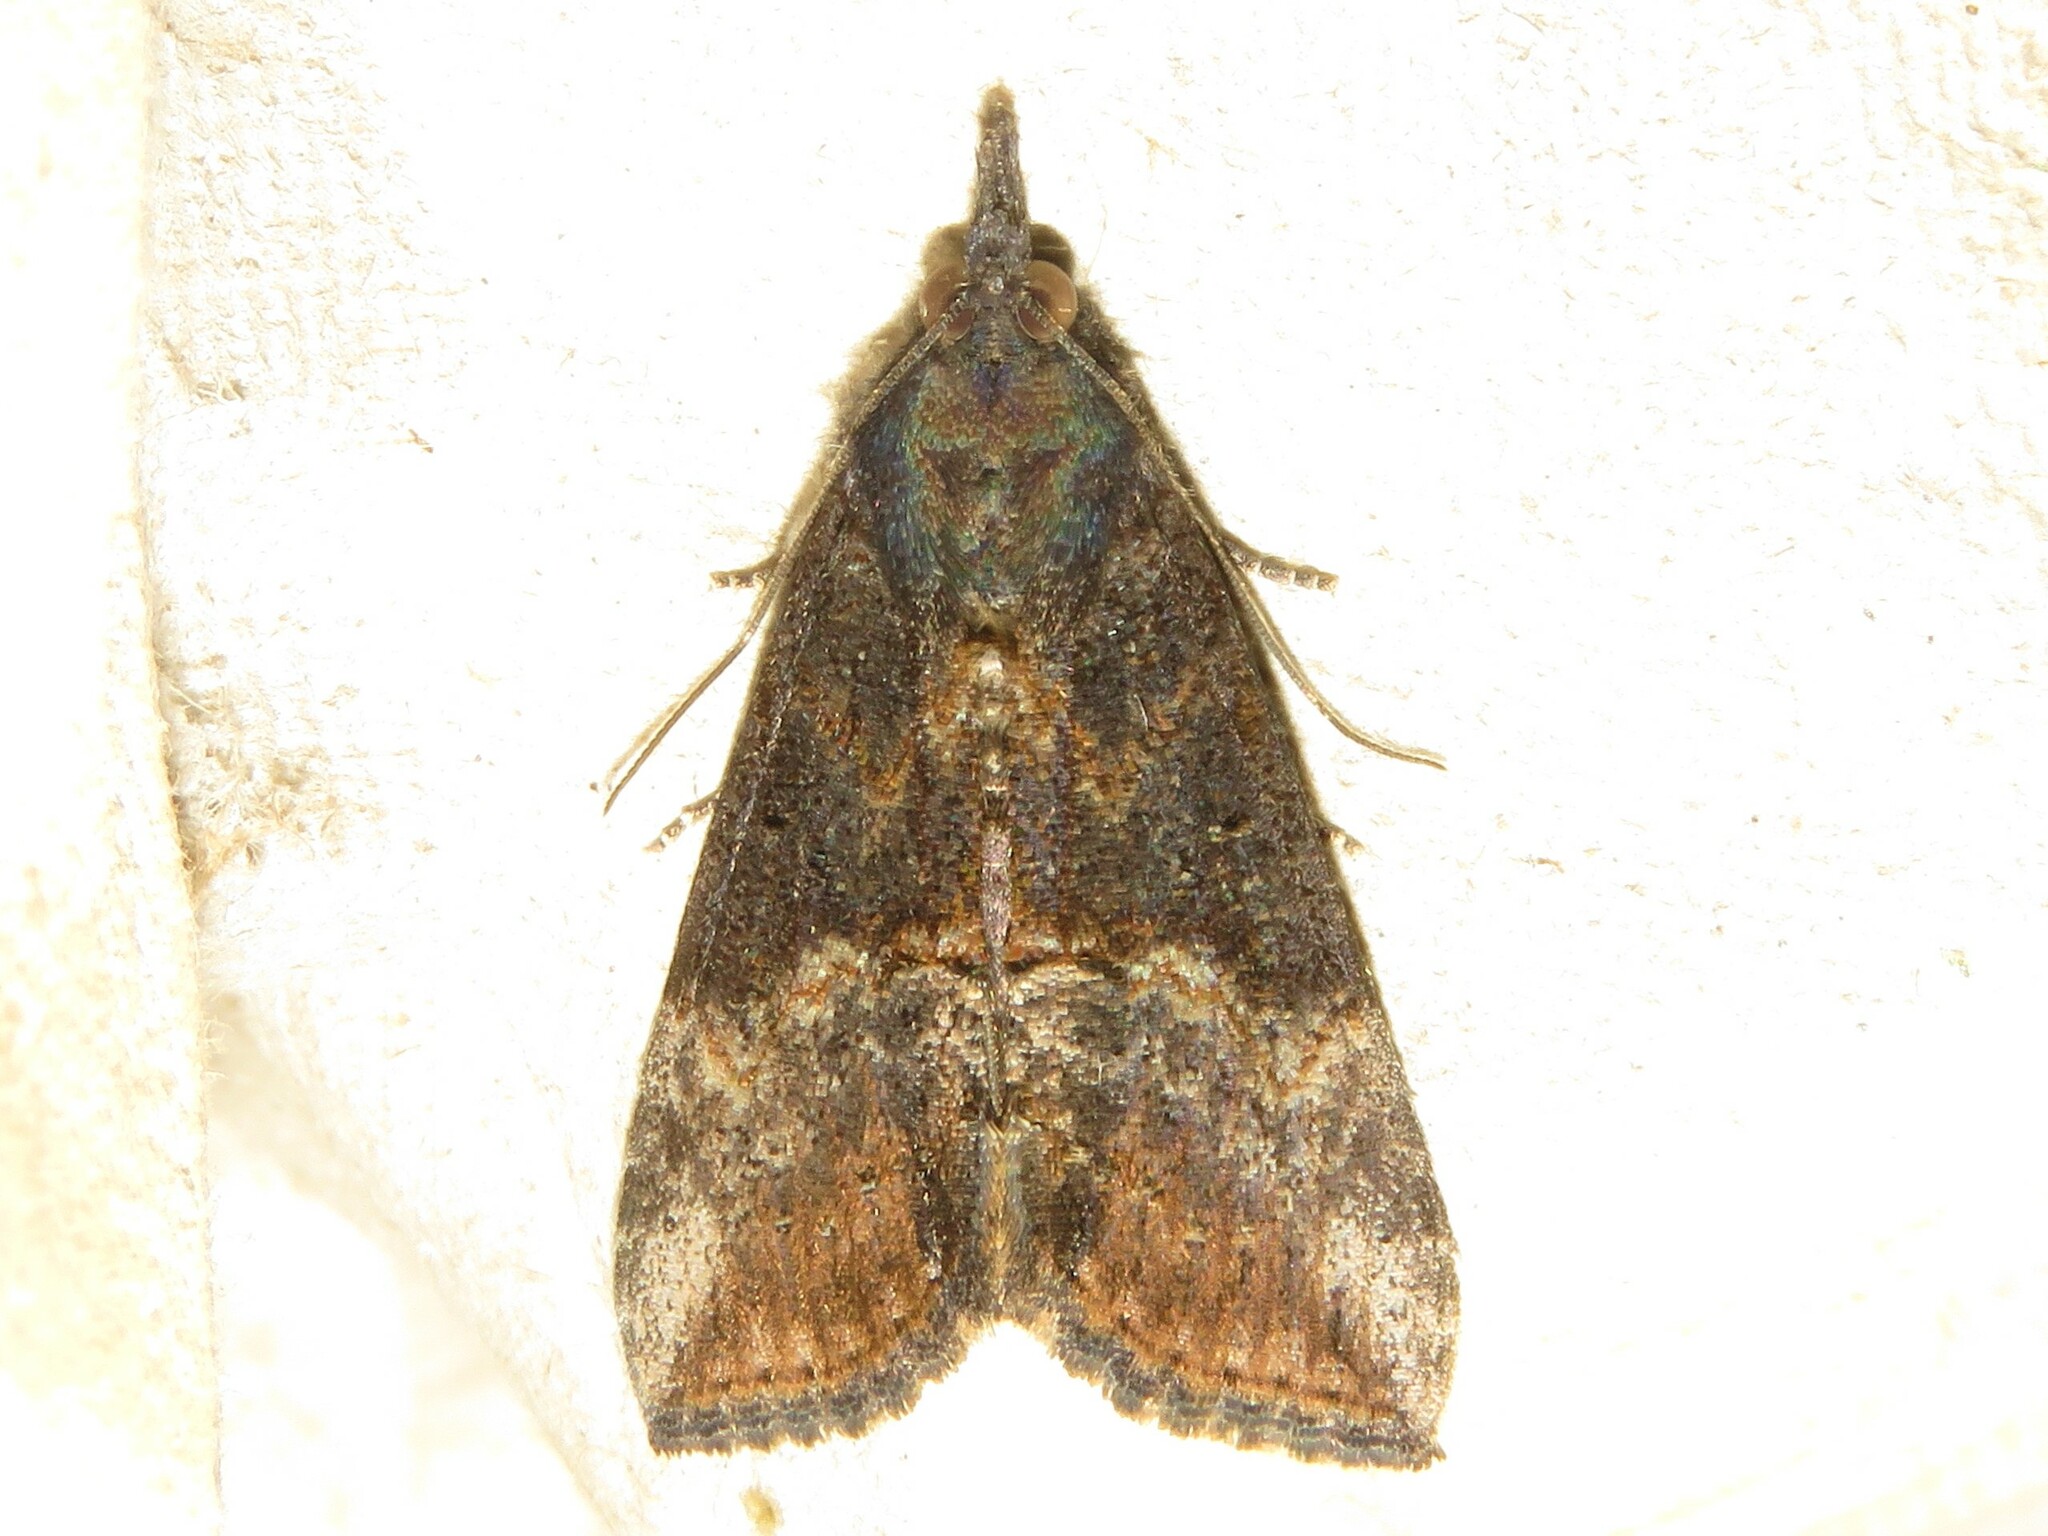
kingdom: Animalia
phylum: Arthropoda
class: Insecta
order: Lepidoptera
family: Erebidae
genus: Hypena
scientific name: Hypena scabra
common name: Green cloverworm
